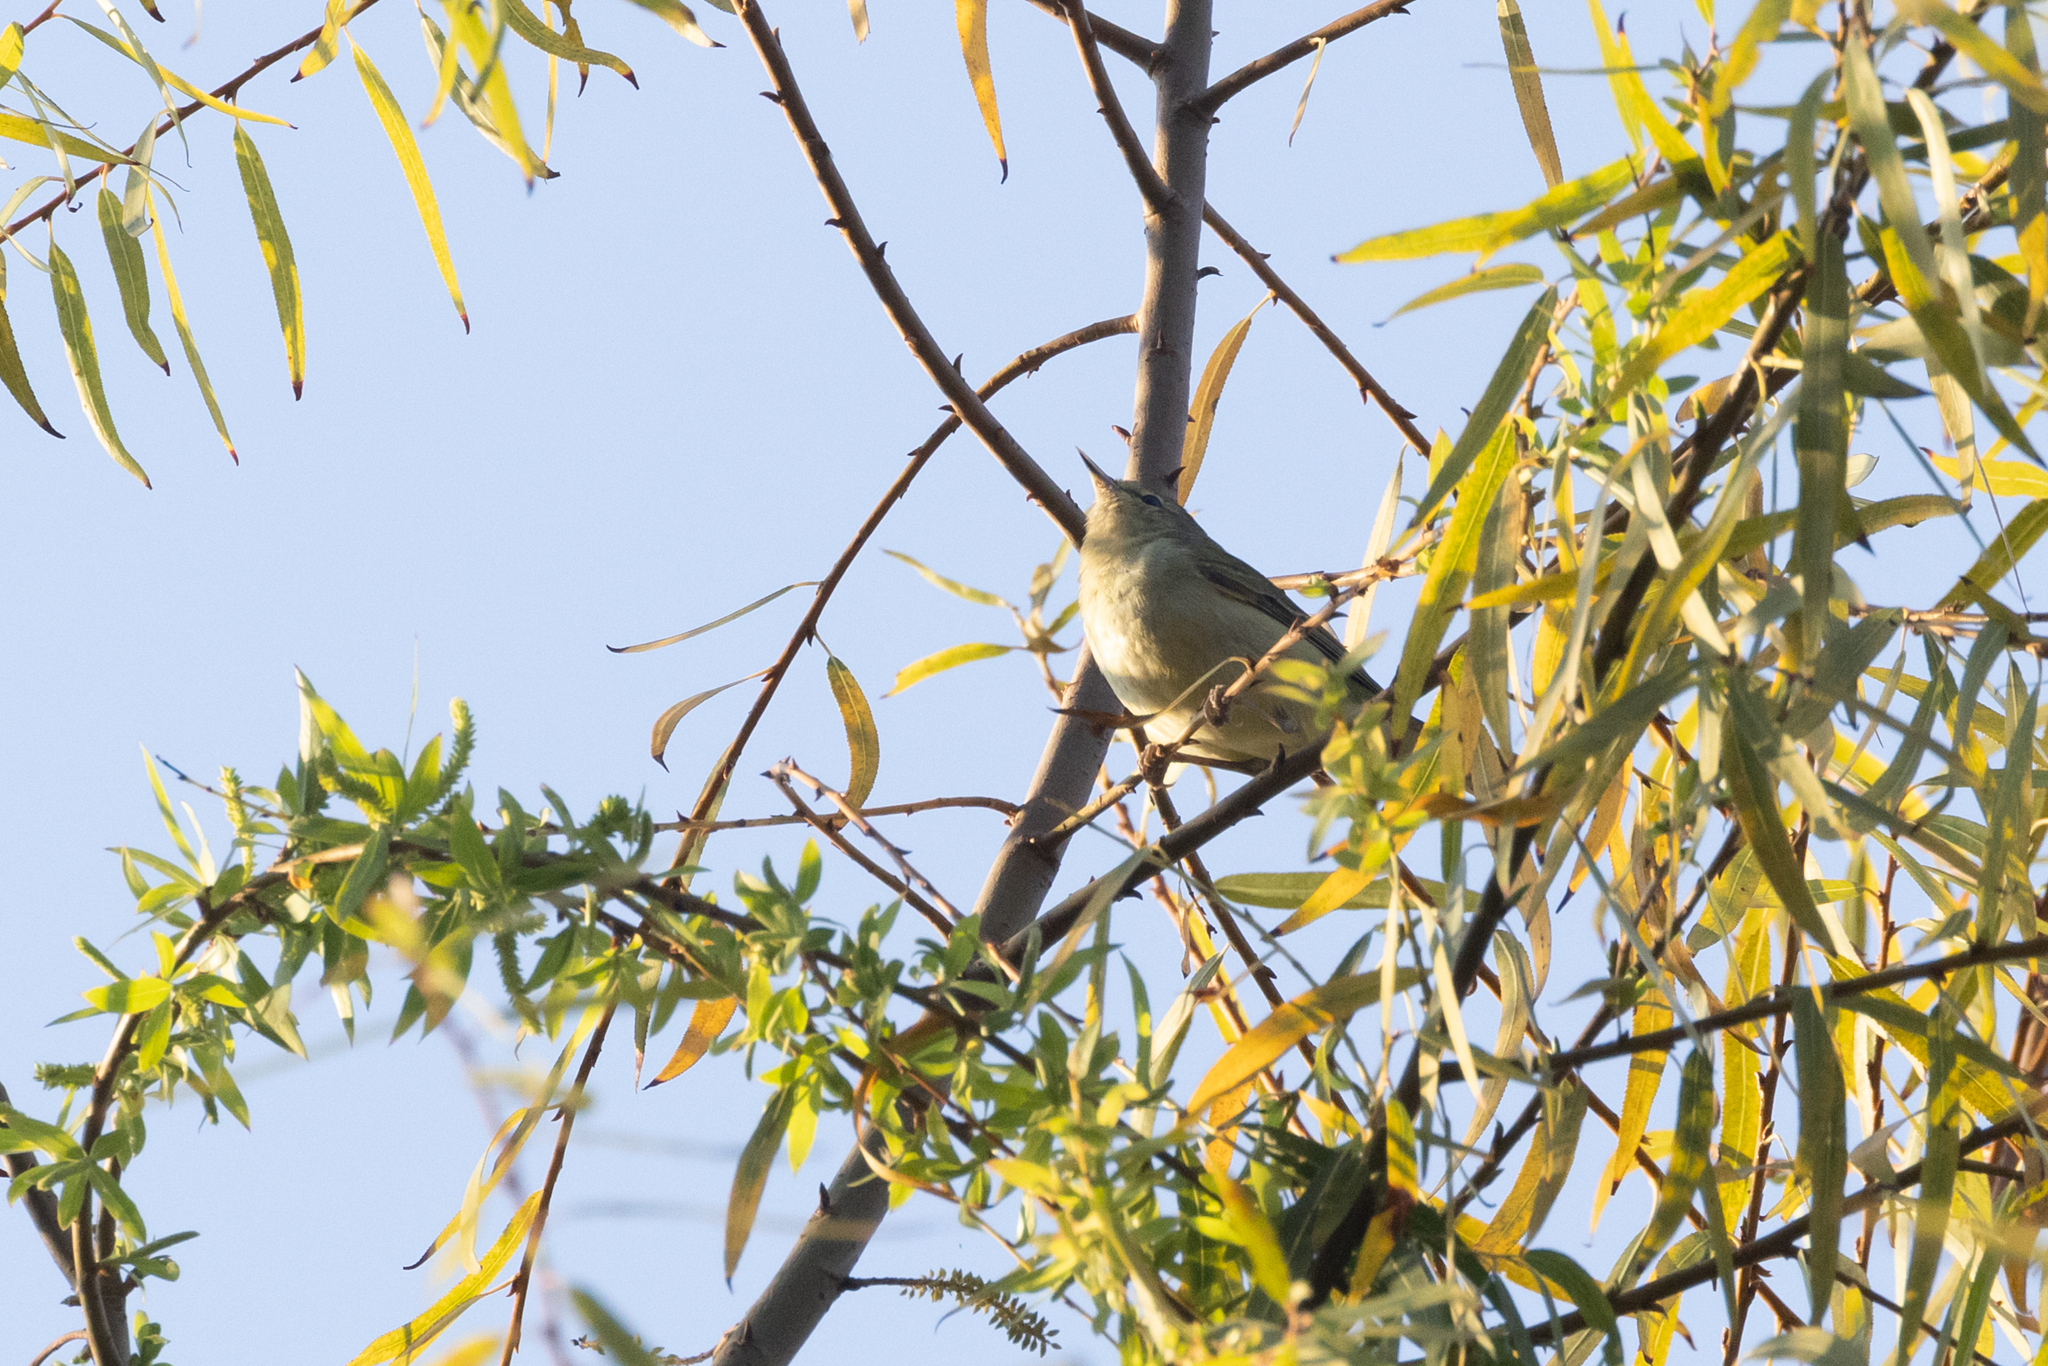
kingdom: Animalia
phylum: Chordata
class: Aves
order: Passeriformes
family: Parulidae
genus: Leiothlypis
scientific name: Leiothlypis peregrina
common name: Tennessee warbler
